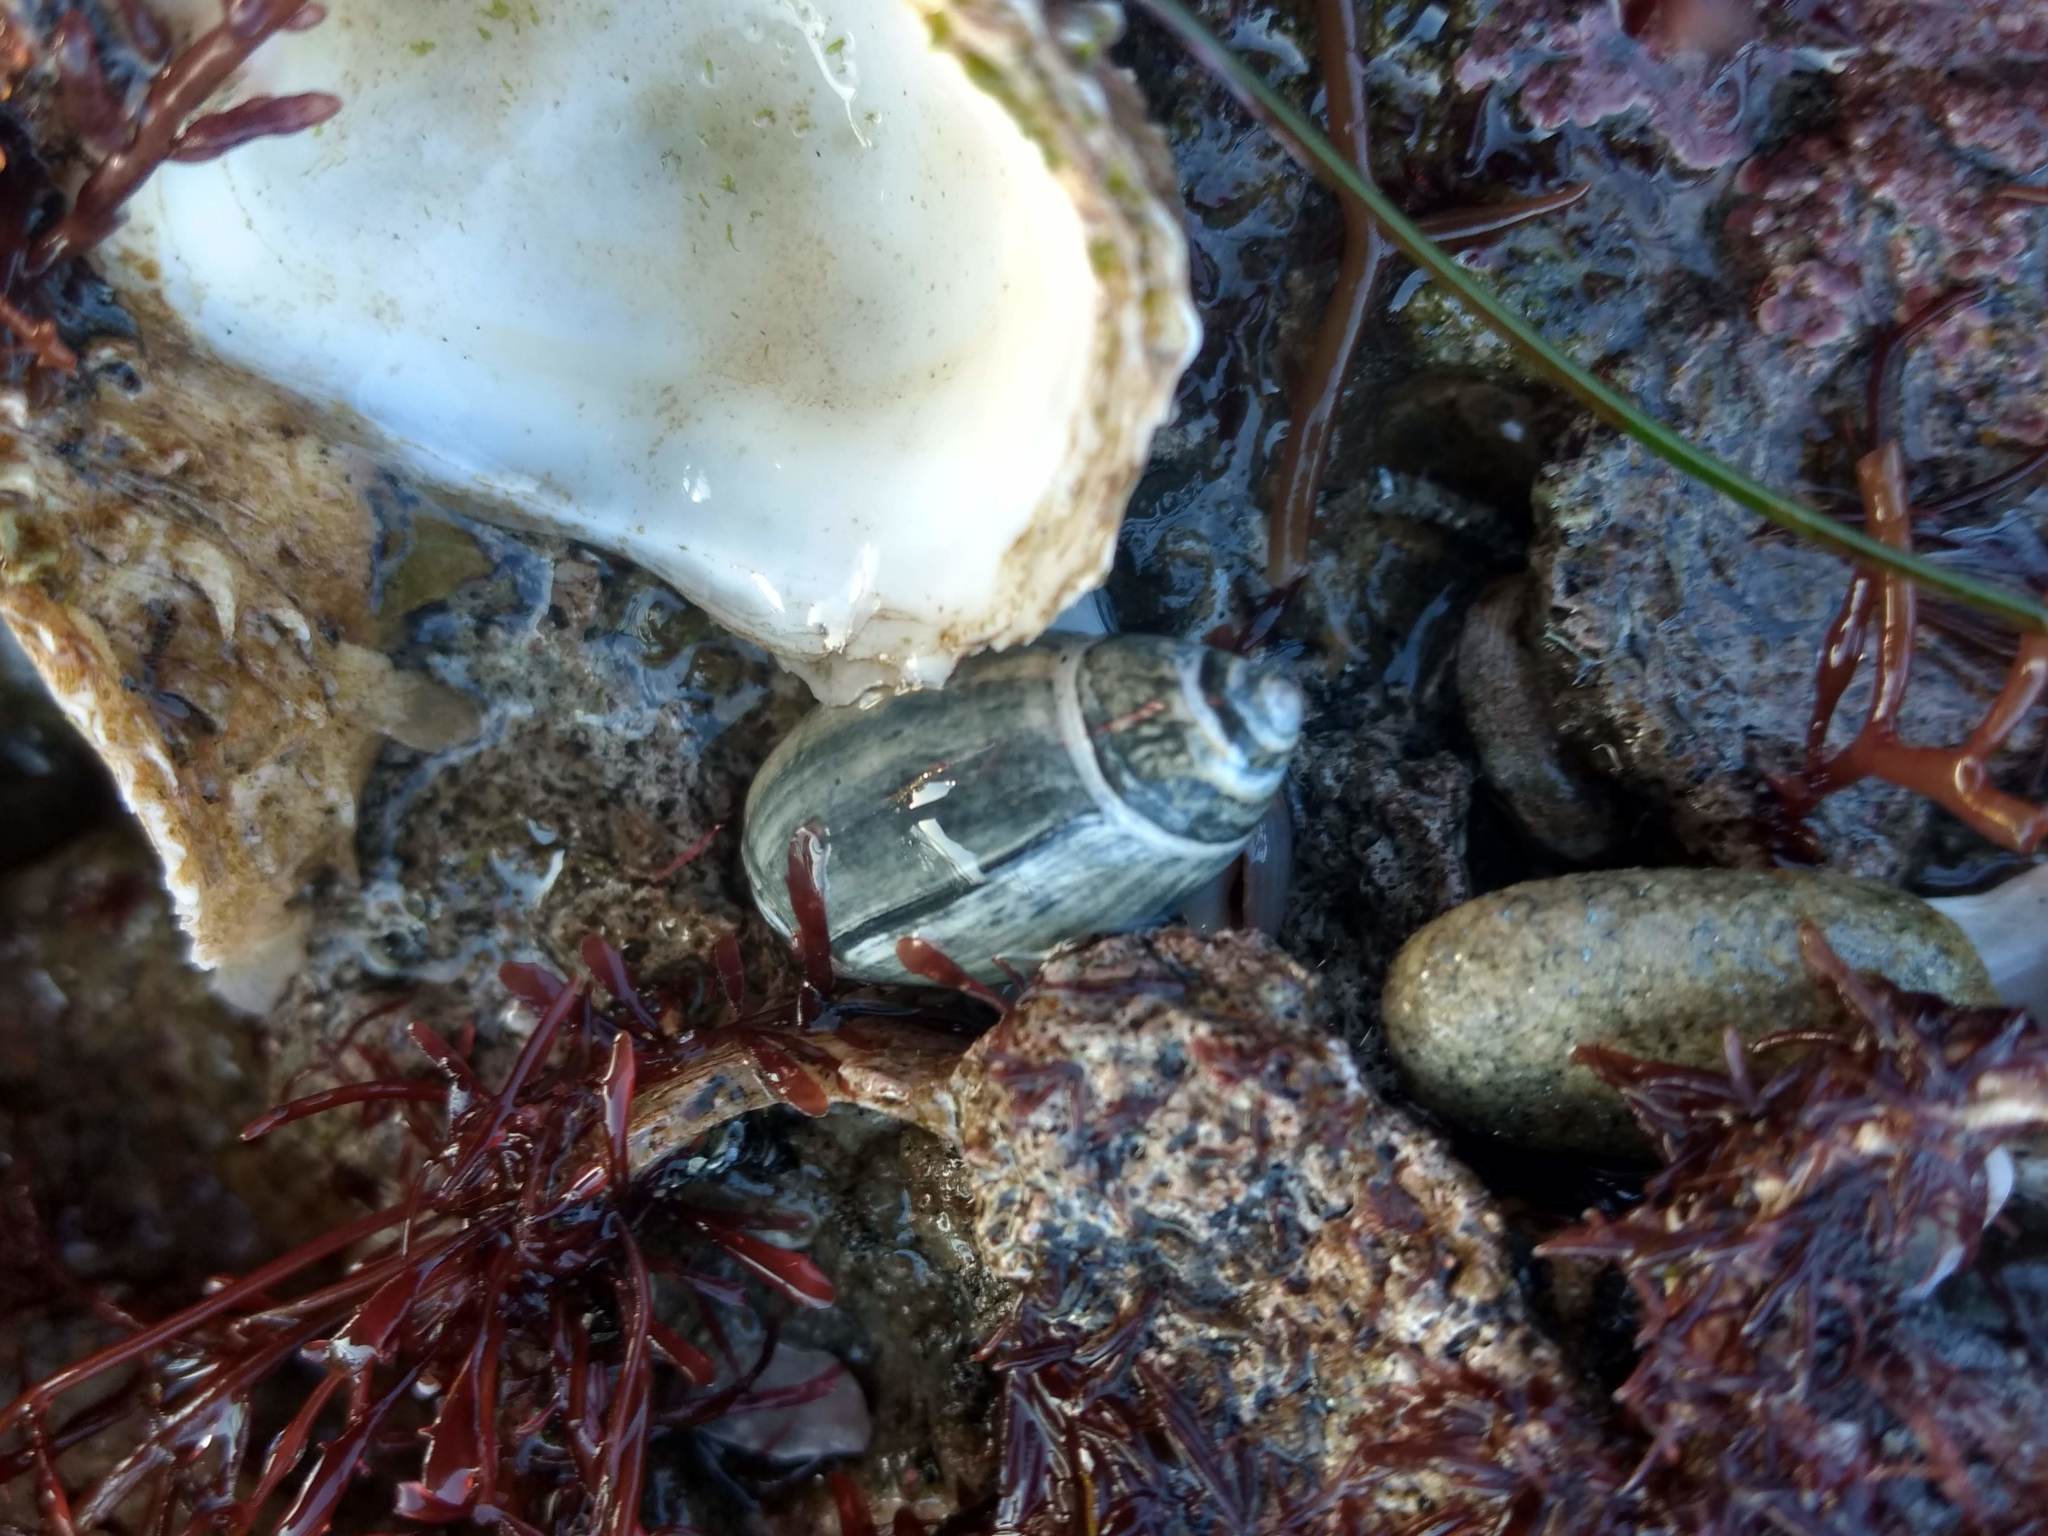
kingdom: Animalia
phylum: Mollusca
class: Gastropoda
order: Neogastropoda
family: Olividae
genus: Callianax
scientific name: Callianax biplicata
